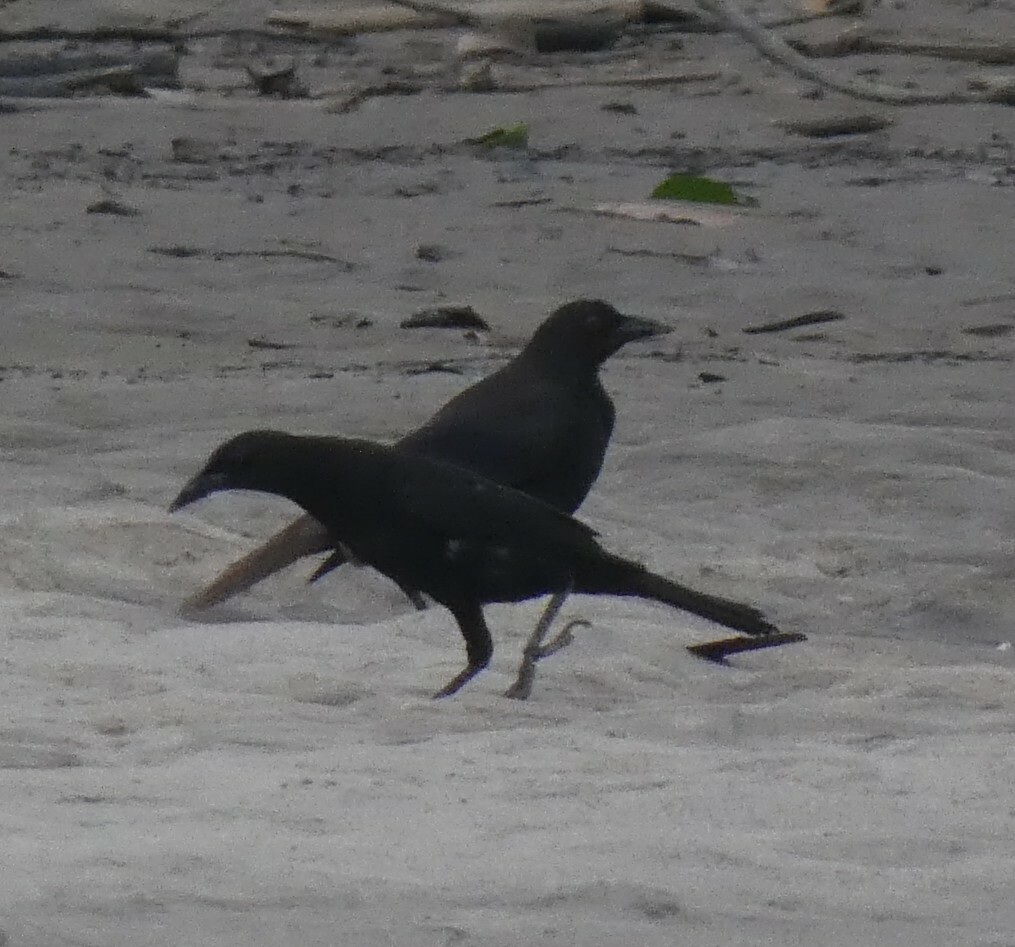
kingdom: Animalia
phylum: Chordata
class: Aves
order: Passeriformes
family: Icteridae
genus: Molothrus
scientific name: Molothrus oryzivorus
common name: Giant cowbird
